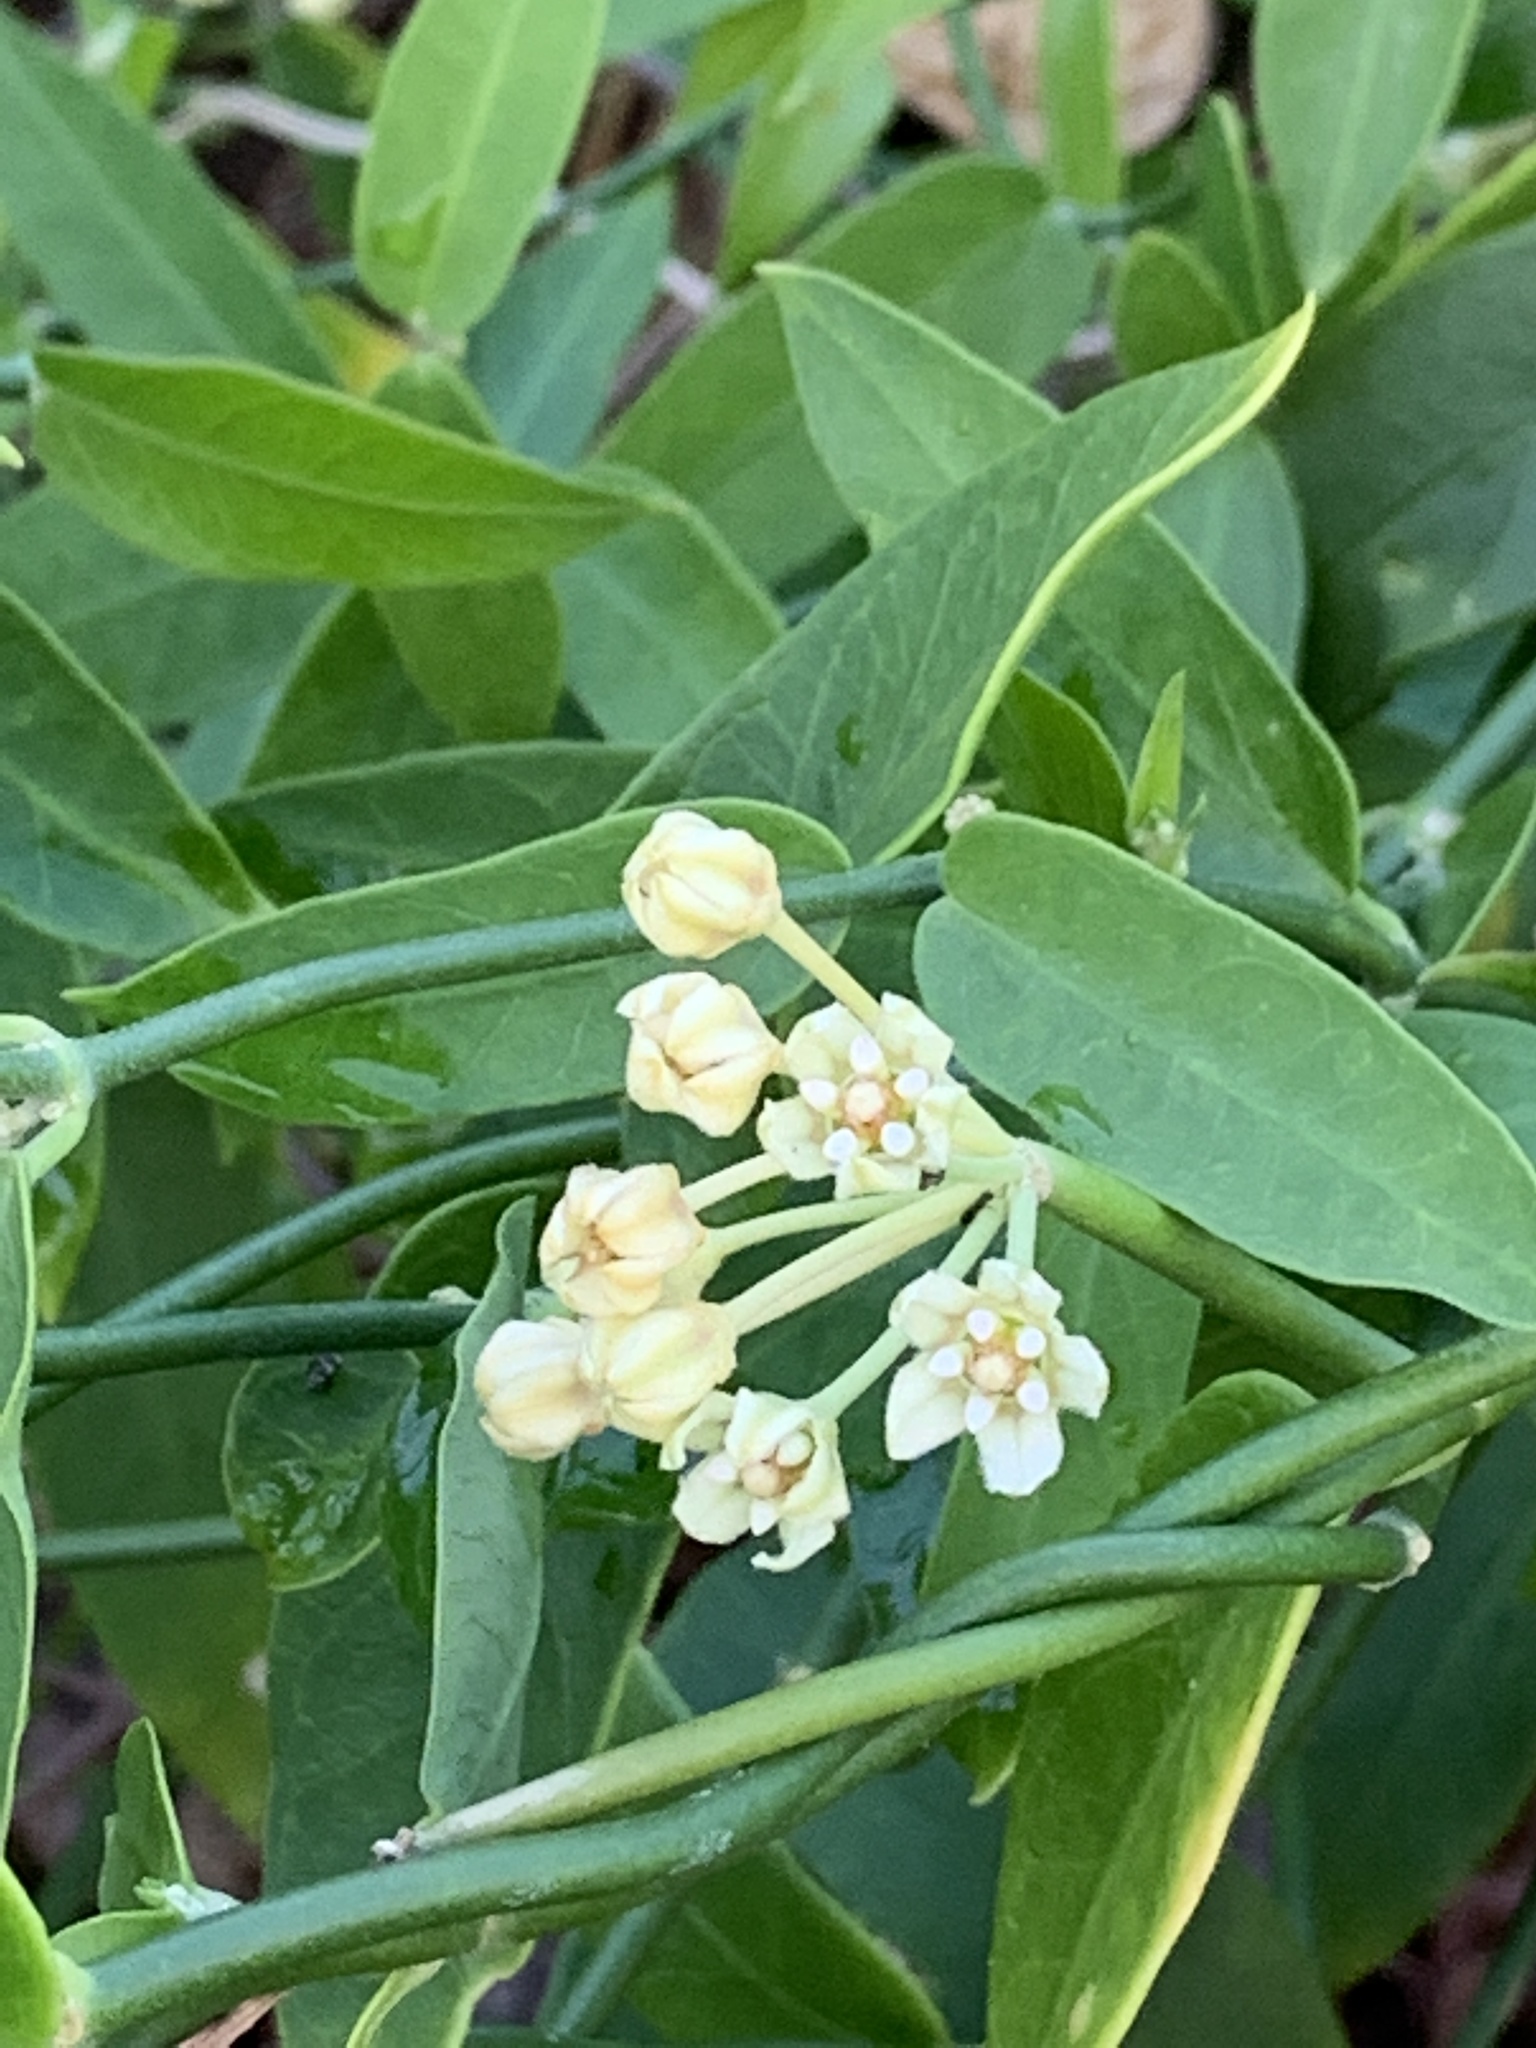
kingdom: Plantae
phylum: Tracheophyta
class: Magnoliopsida
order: Gentianales
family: Apocynaceae
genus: Funastrum
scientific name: Funastrum clausum
